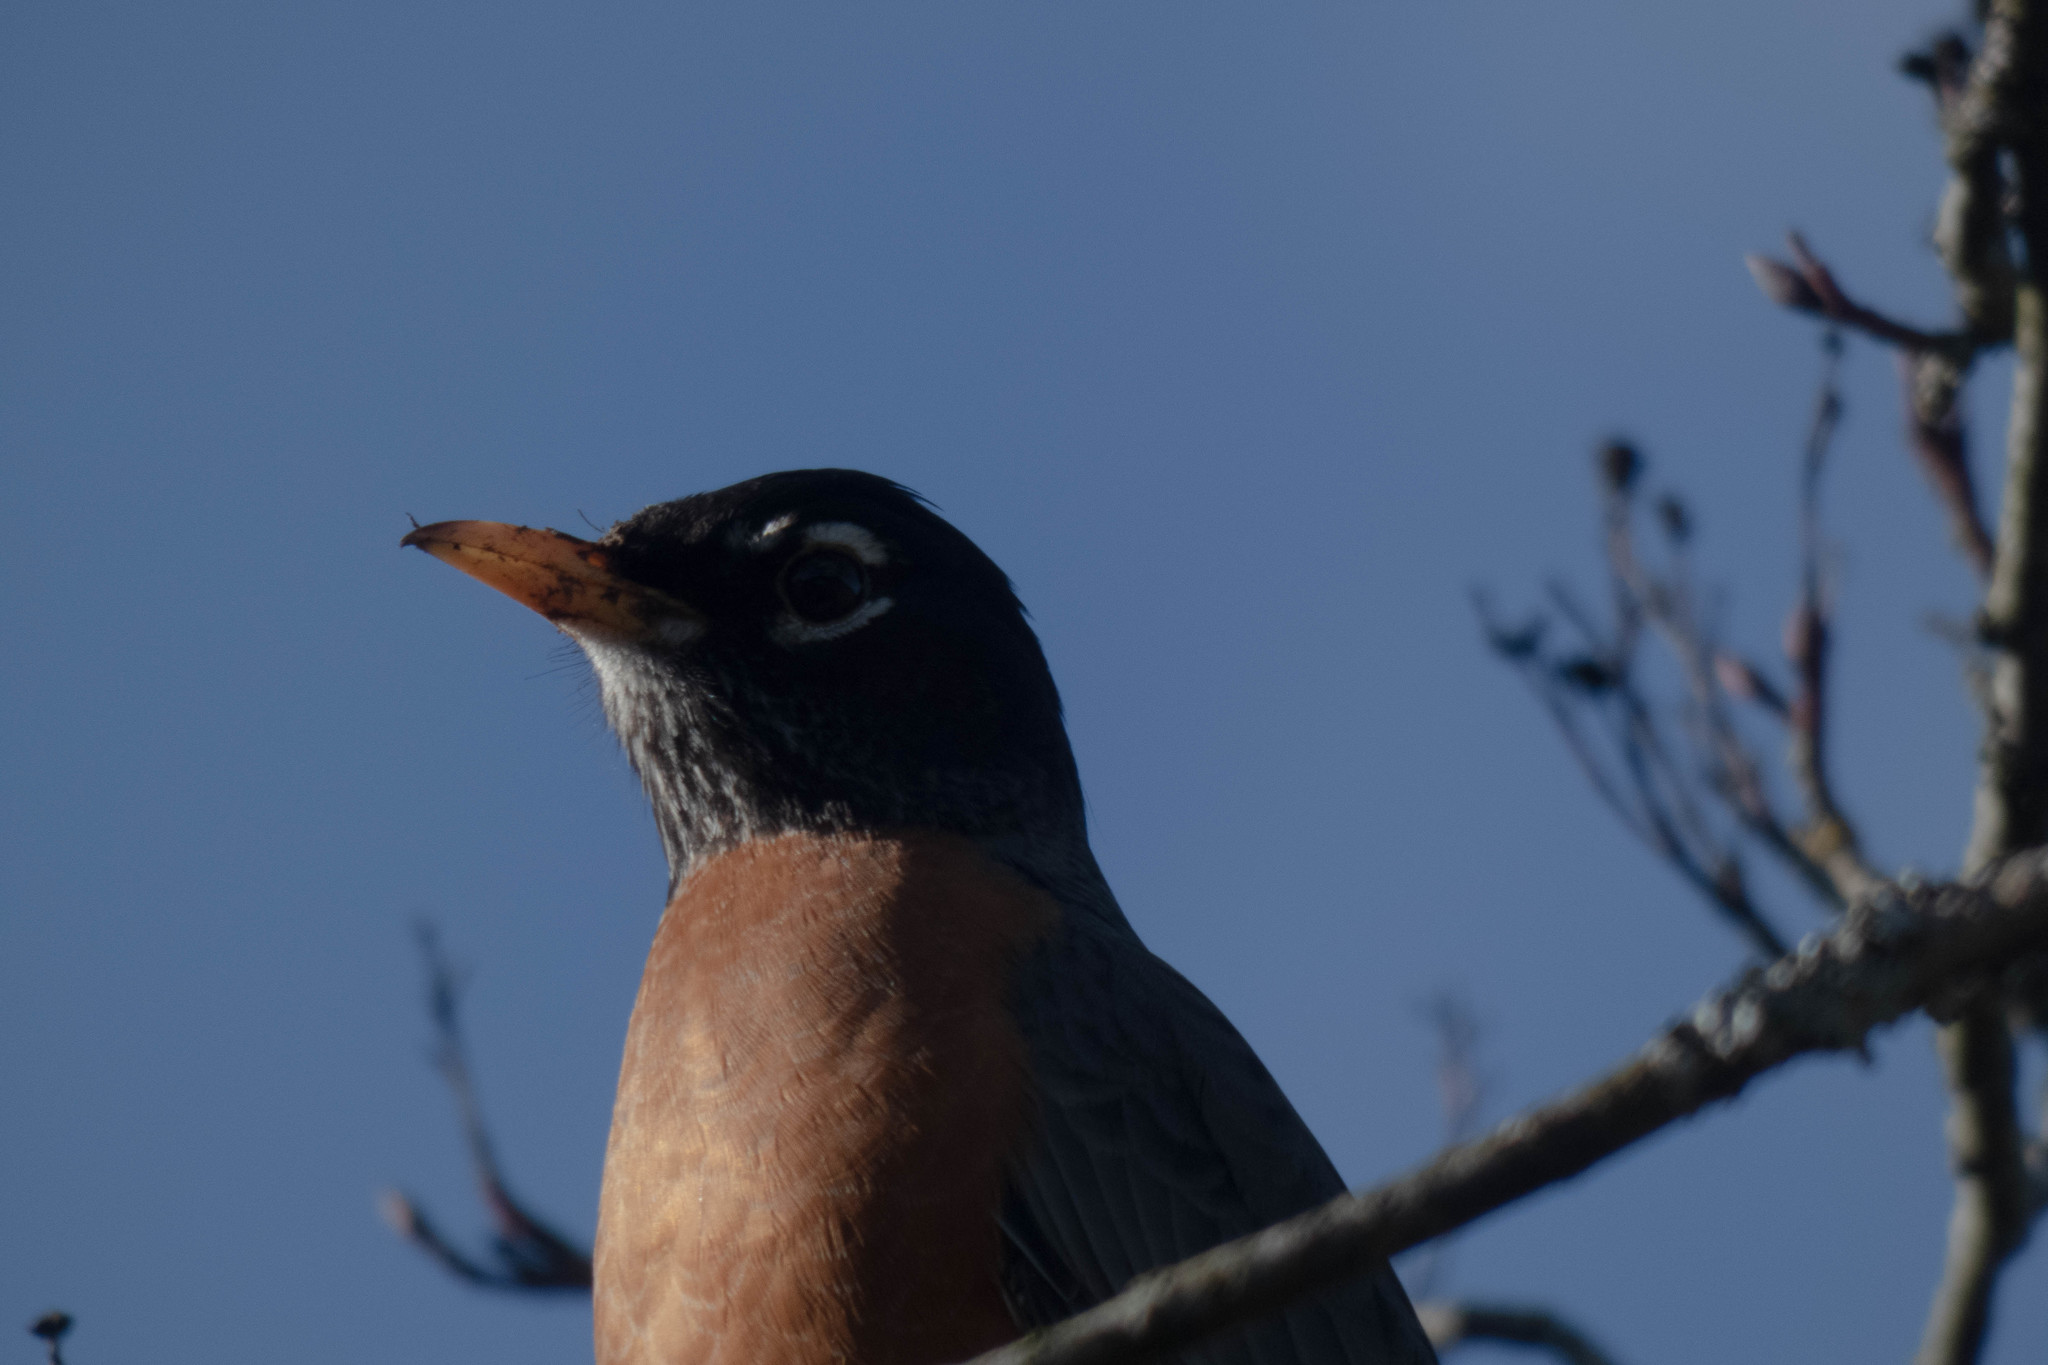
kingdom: Animalia
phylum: Chordata
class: Aves
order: Passeriformes
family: Turdidae
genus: Turdus
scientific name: Turdus migratorius
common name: American robin
